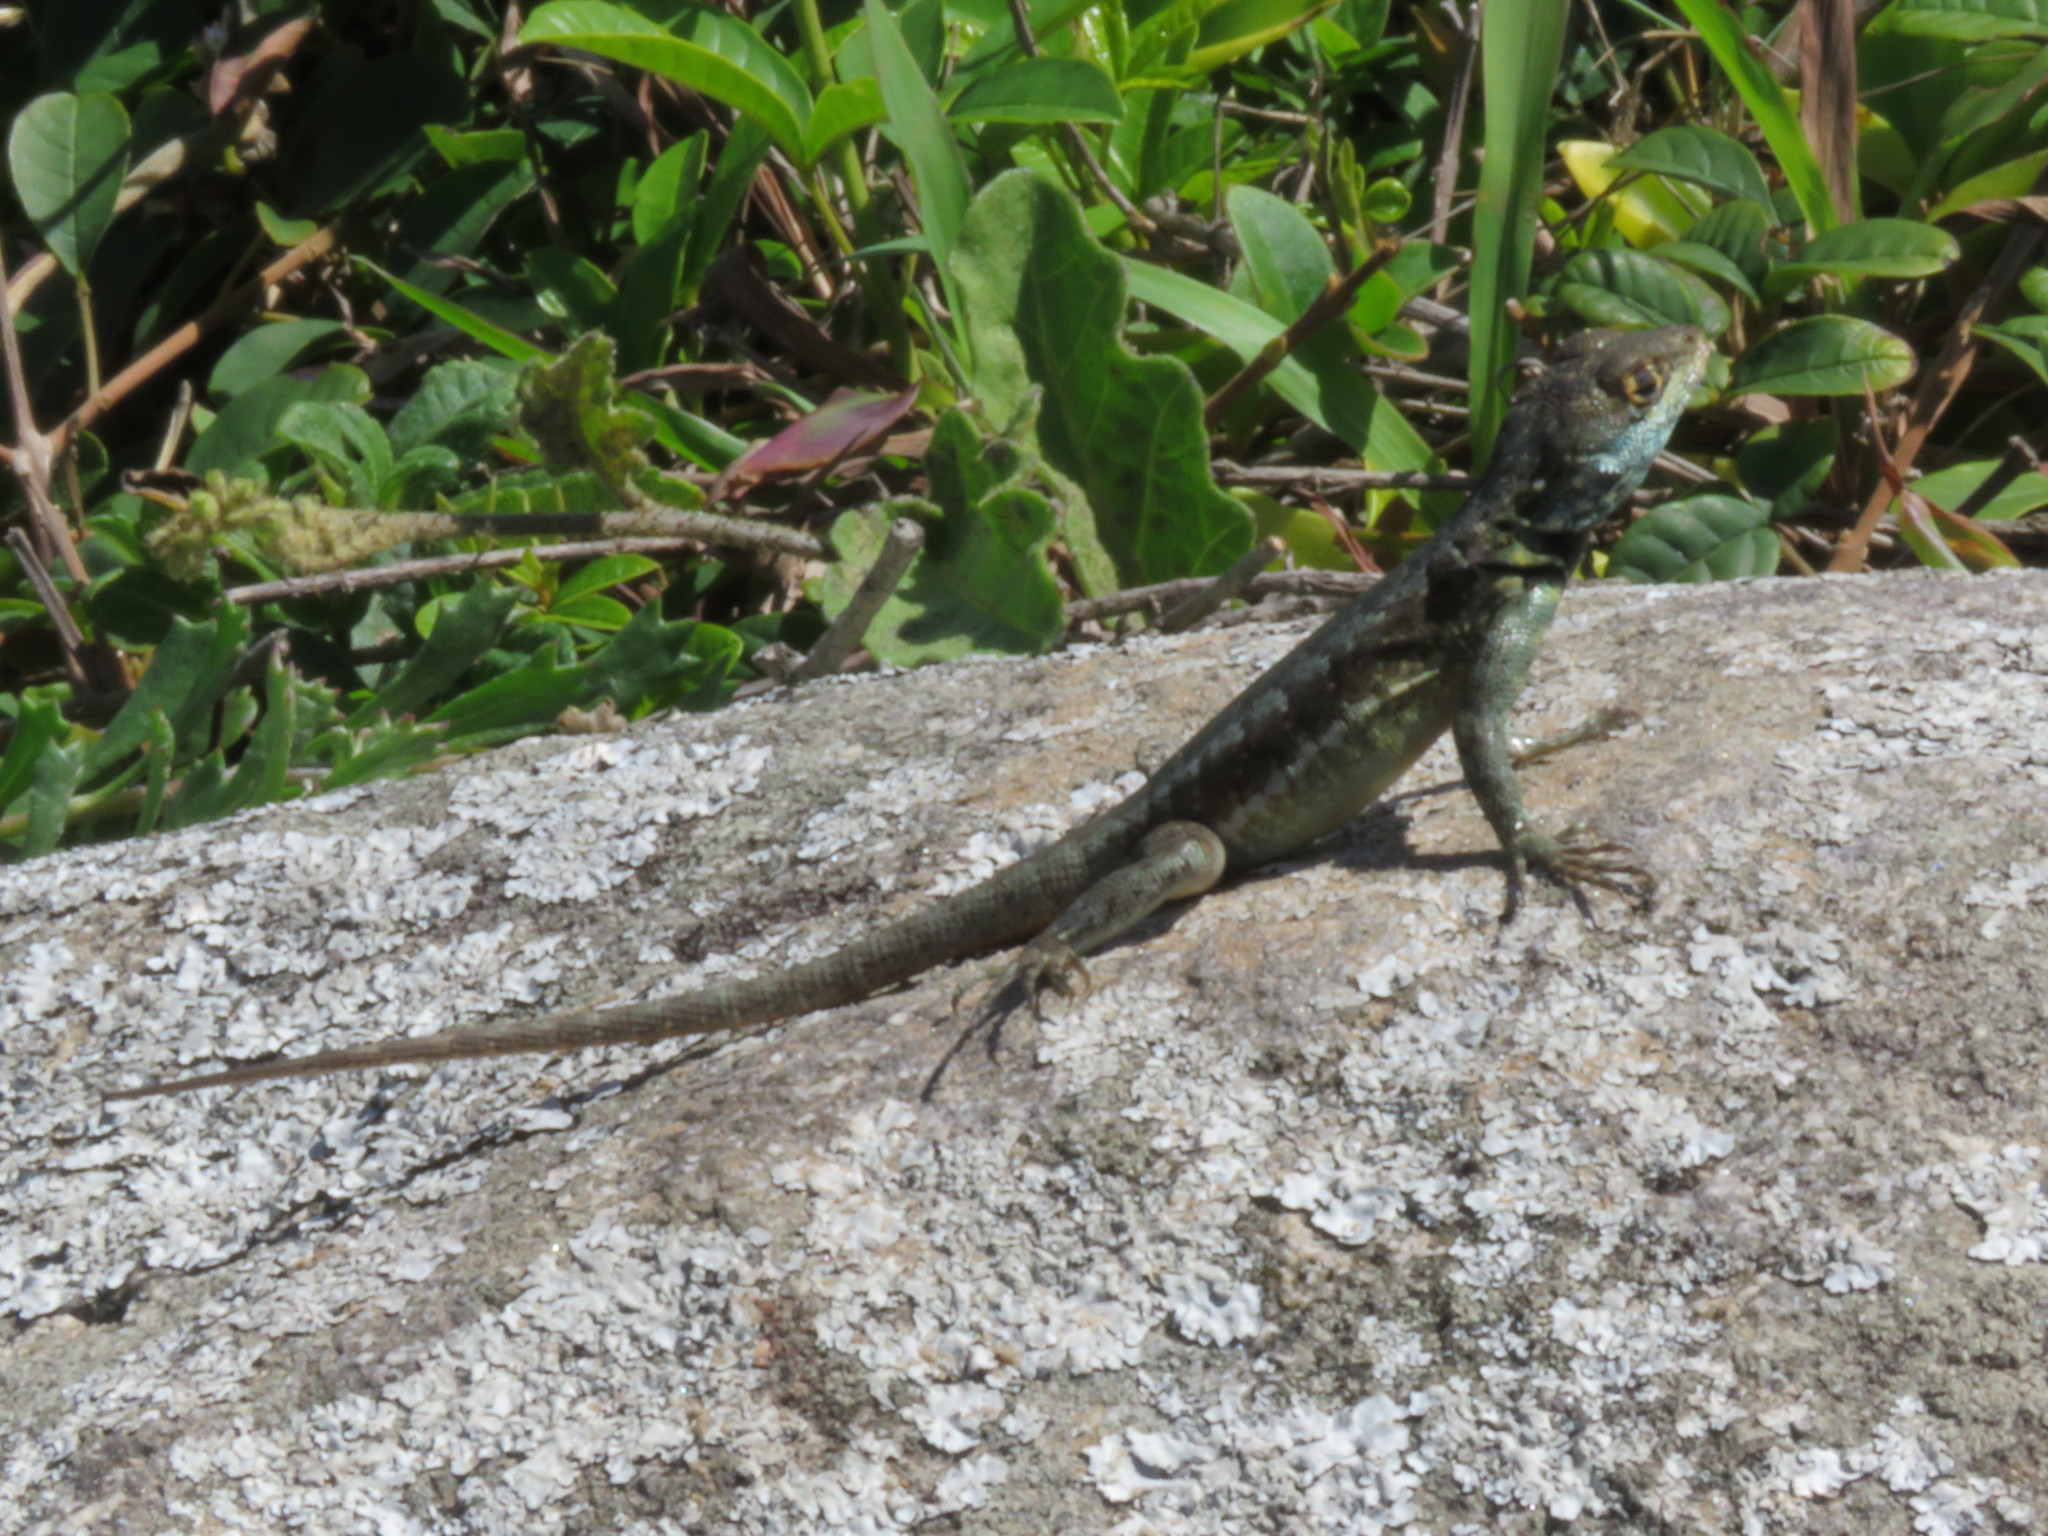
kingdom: Animalia
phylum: Chordata
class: Squamata
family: Tropiduridae
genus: Tropidurus
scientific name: Tropidurus imbituba
